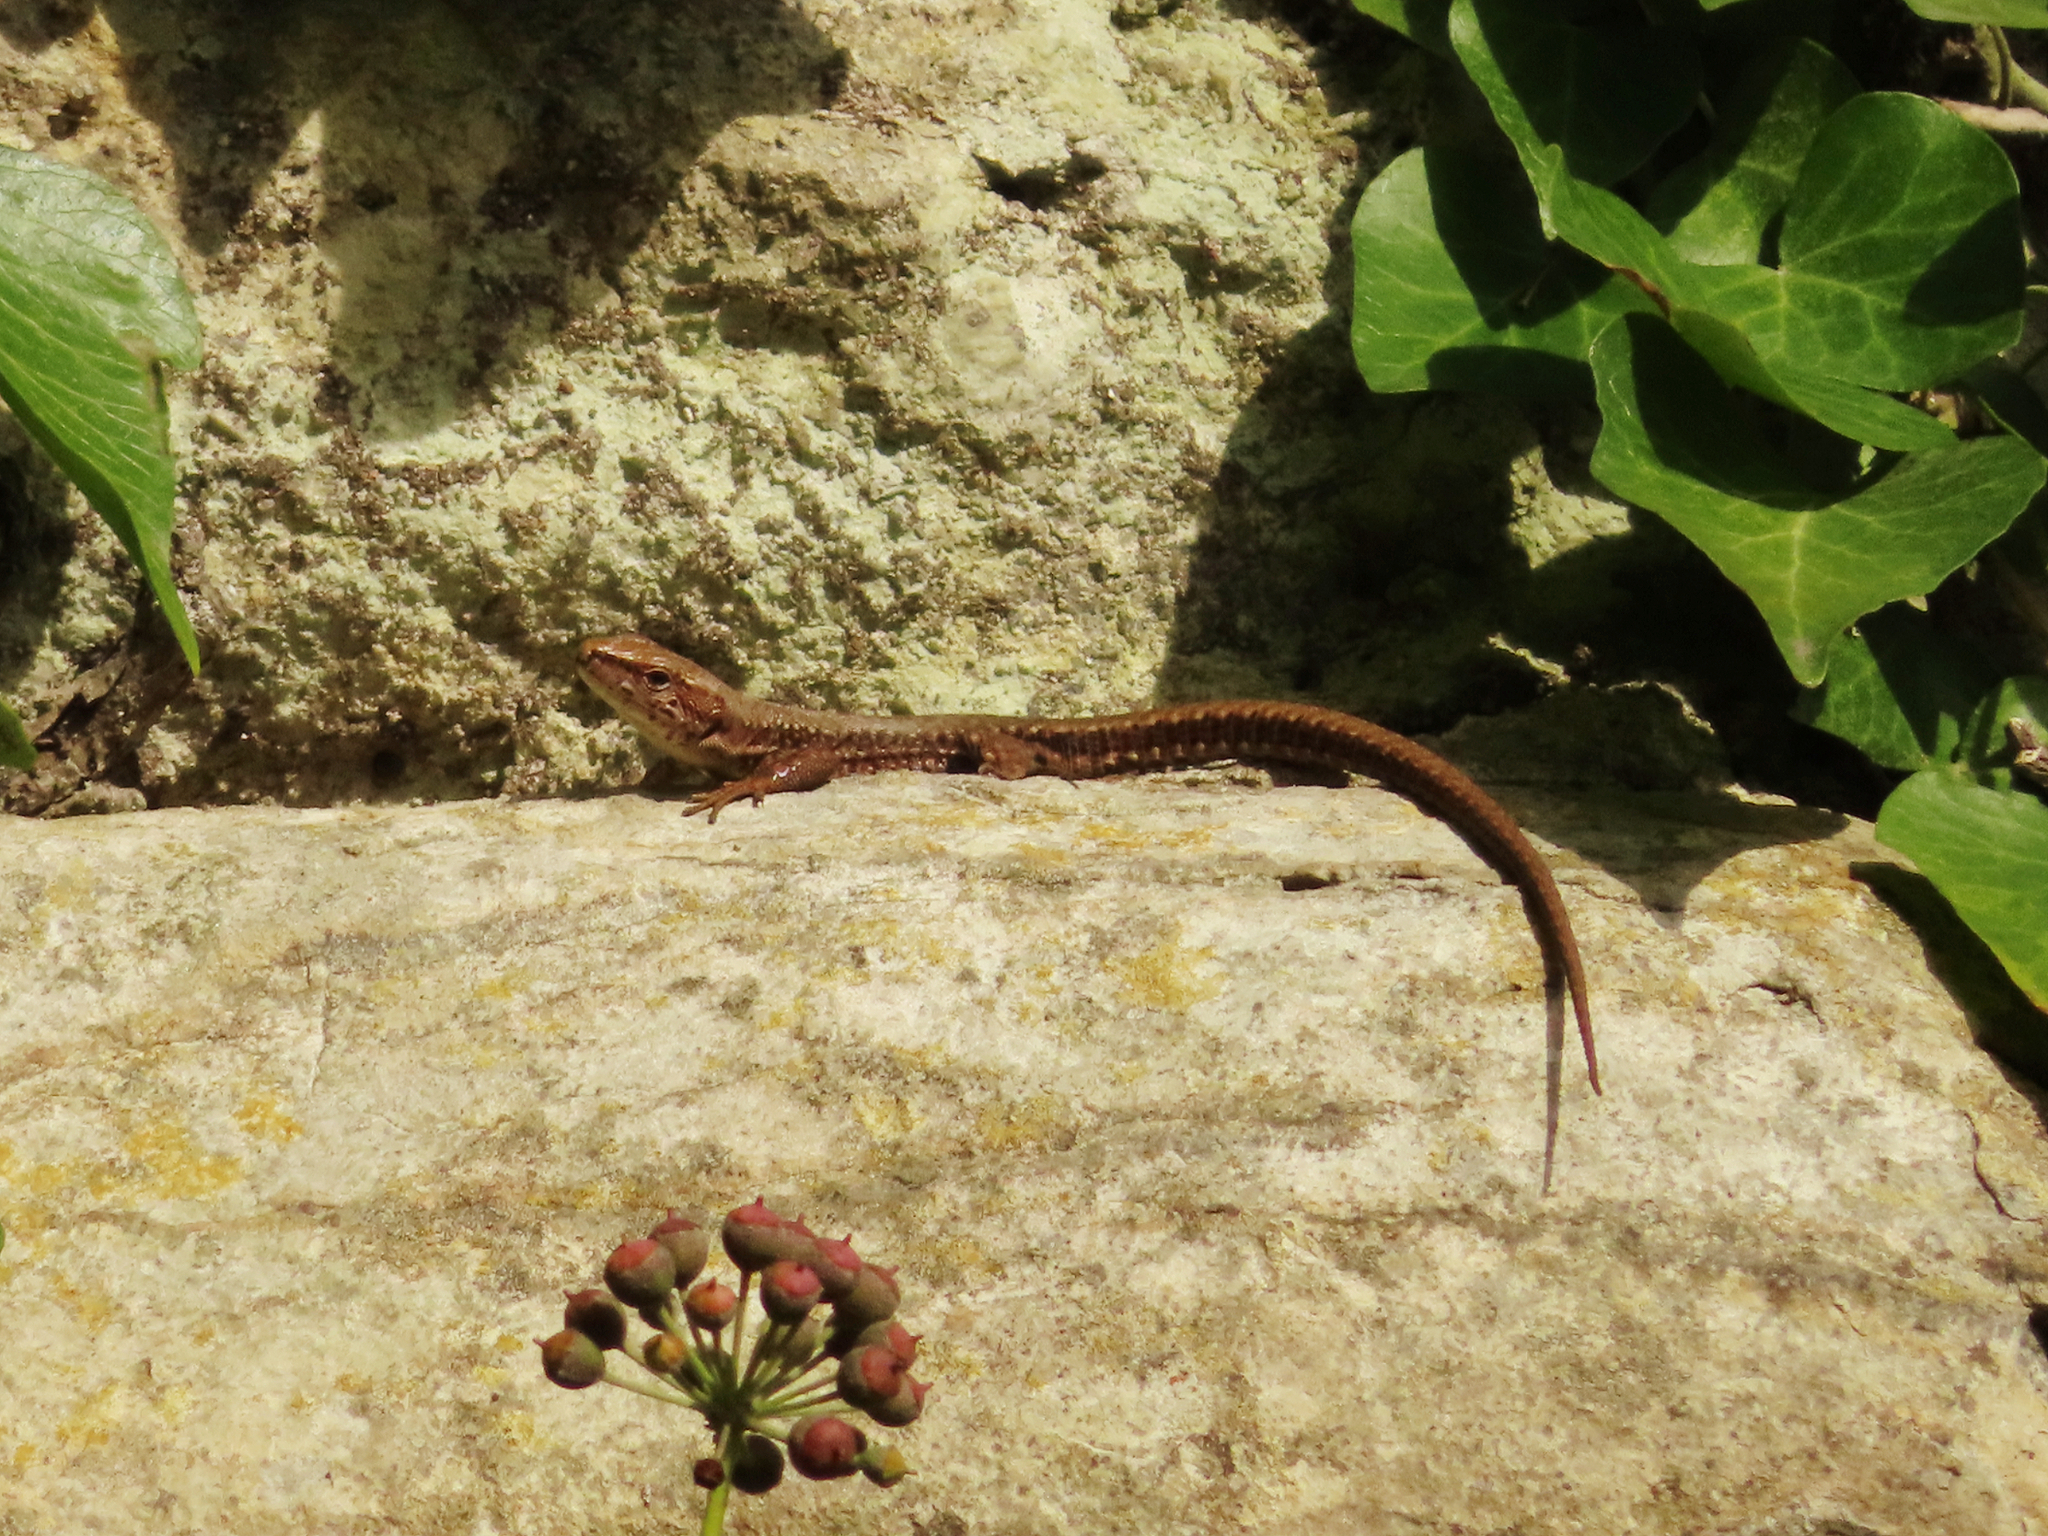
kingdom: Animalia
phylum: Chordata
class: Squamata
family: Lacertidae
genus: Darevskia
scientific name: Darevskia derjugini
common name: Derjugin's lizard
